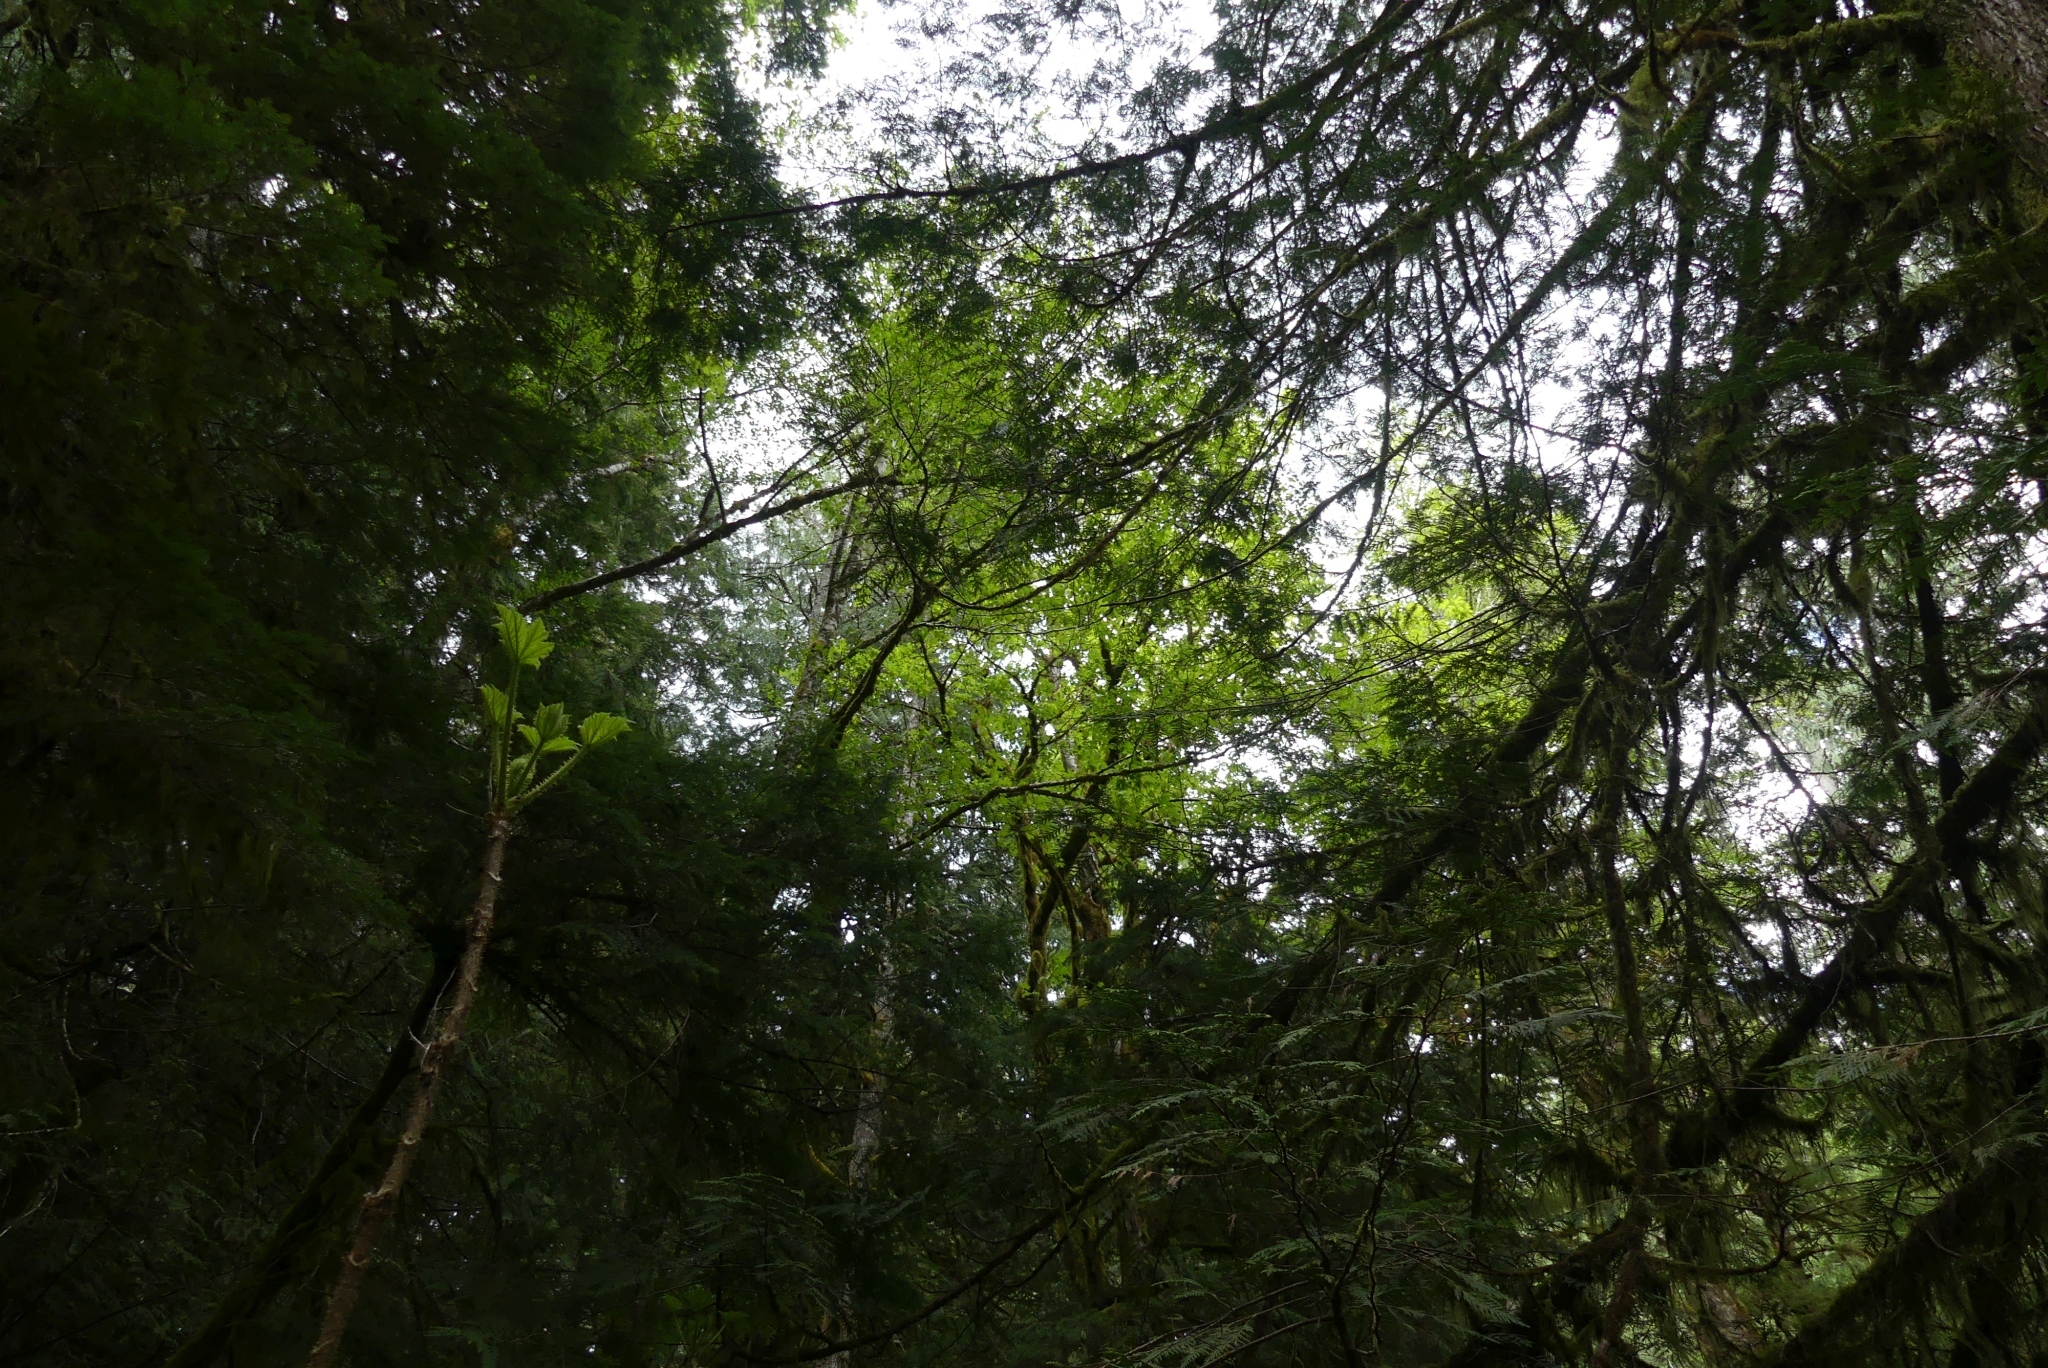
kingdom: Plantae
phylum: Tracheophyta
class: Magnoliopsida
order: Sapindales
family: Sapindaceae
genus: Acer
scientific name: Acer macrophyllum
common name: Oregon maple
